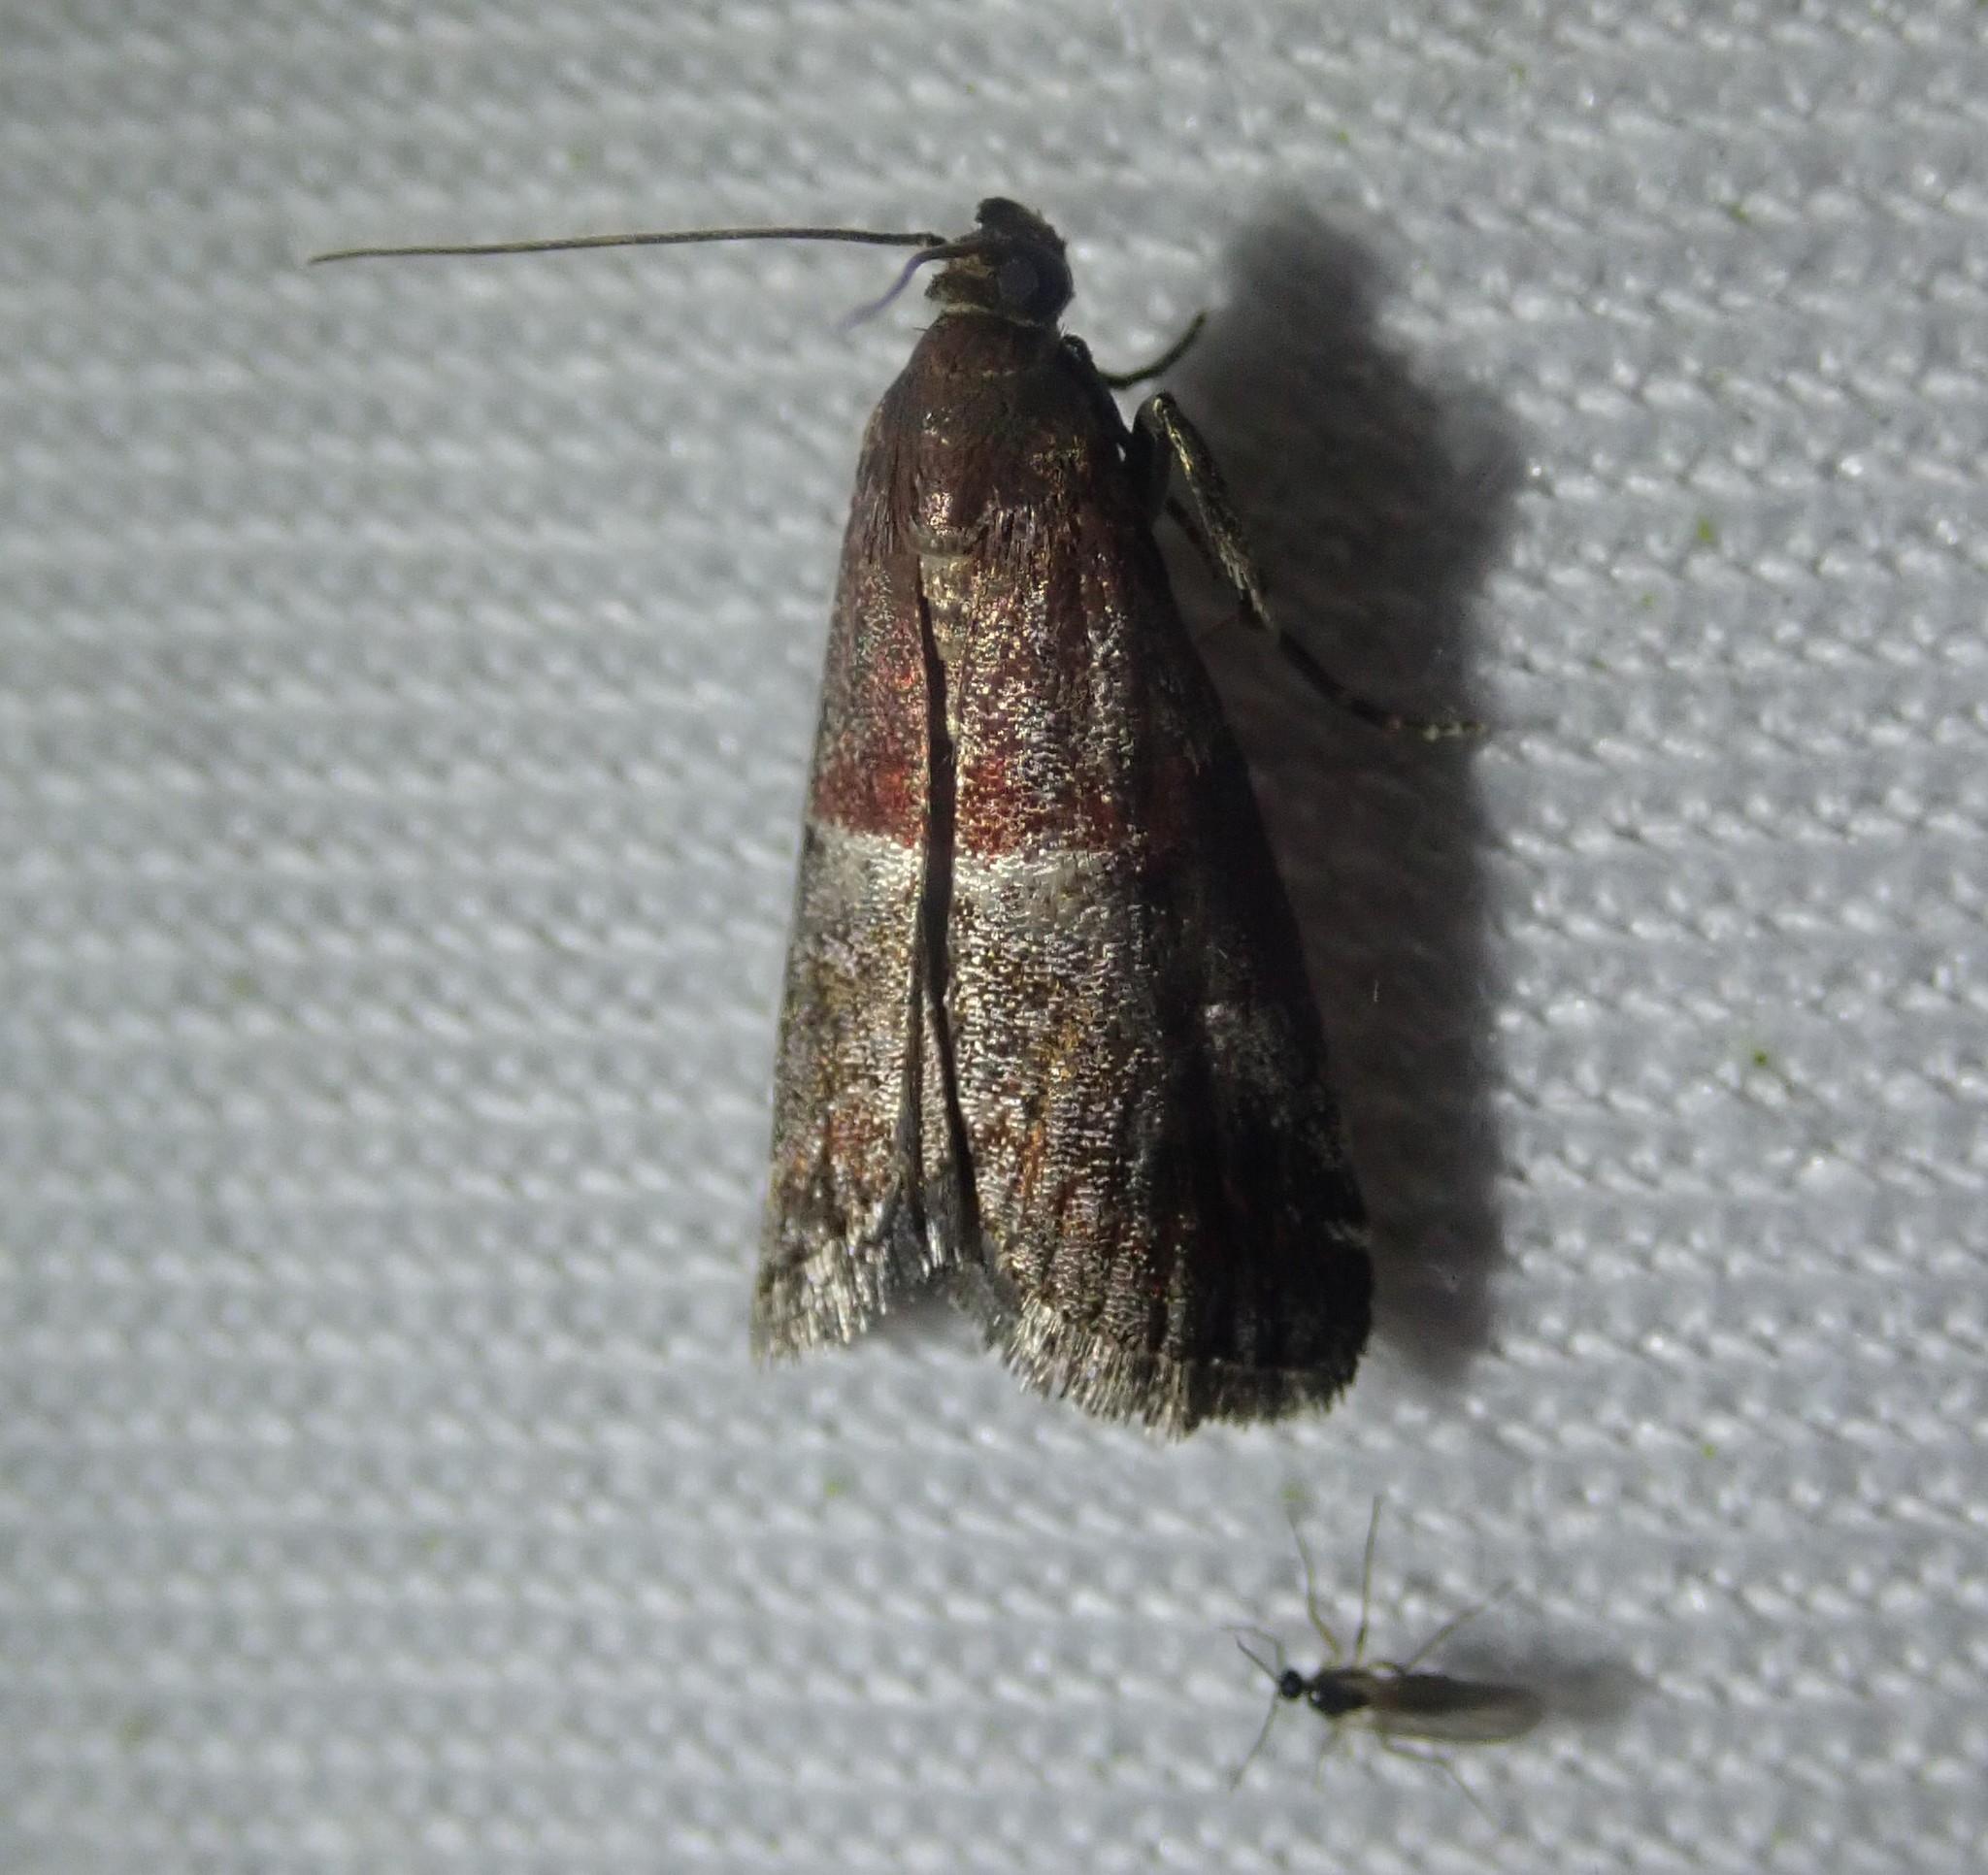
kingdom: Animalia
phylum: Arthropoda
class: Insecta
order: Lepidoptera
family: Pyralidae
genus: Acrobasis
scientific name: Acrobasis marmorea
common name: Marbled knot-horn
